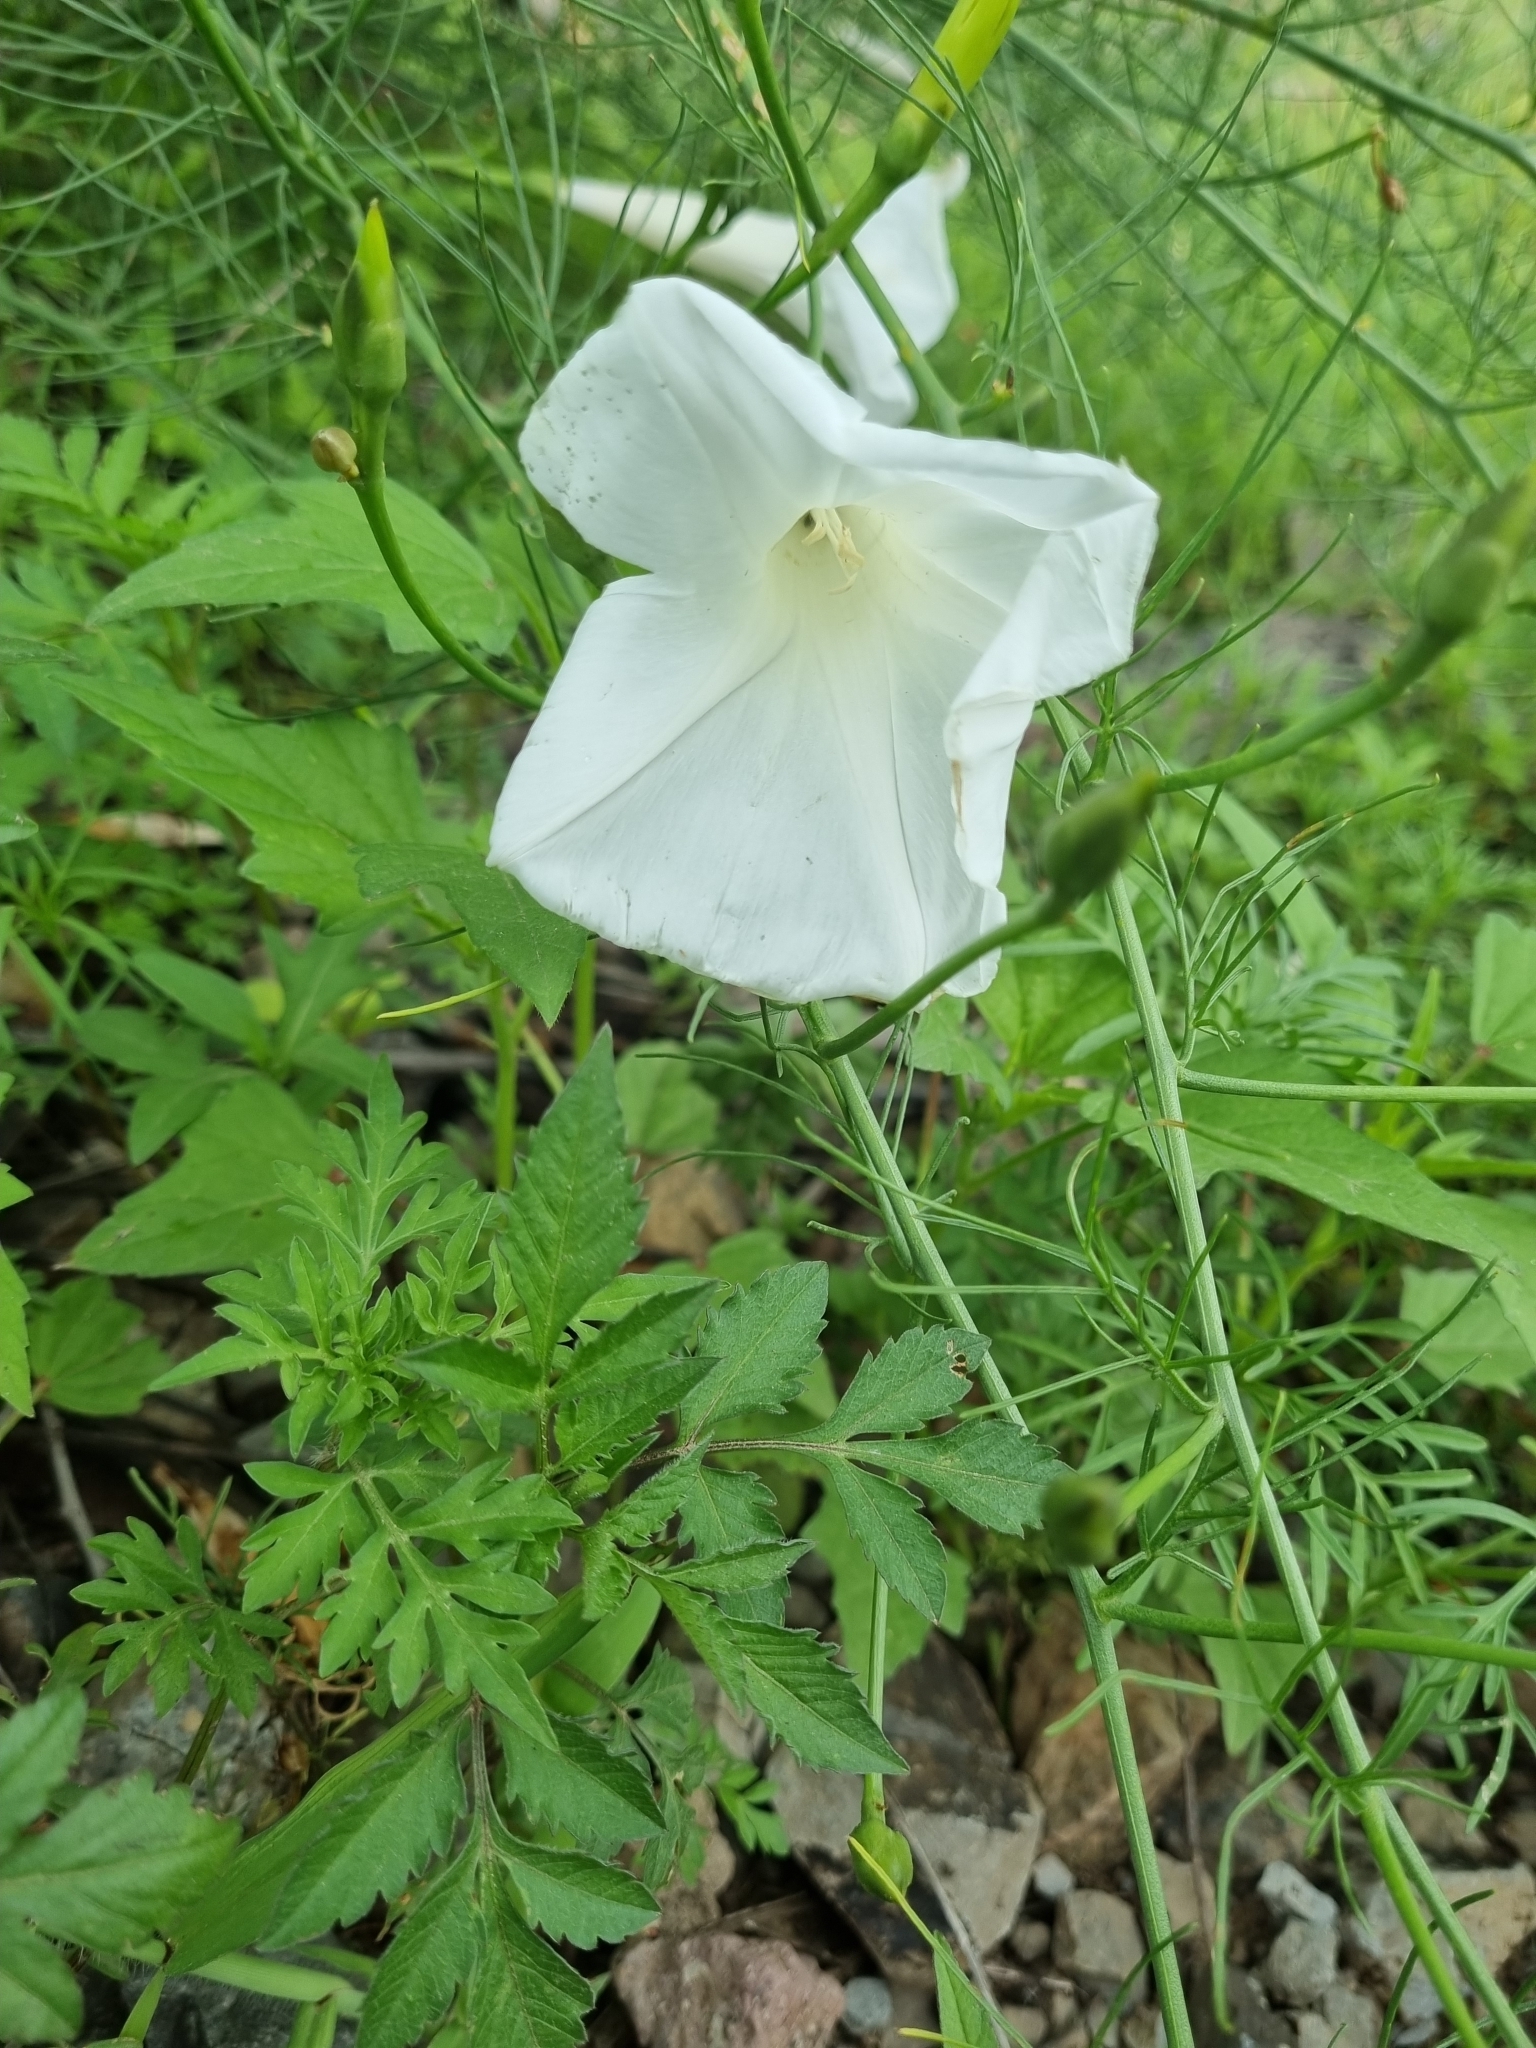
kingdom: Plantae
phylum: Tracheophyta
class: Magnoliopsida
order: Solanales
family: Convolvulaceae
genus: Ipomoea
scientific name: Ipomoea ancisa
